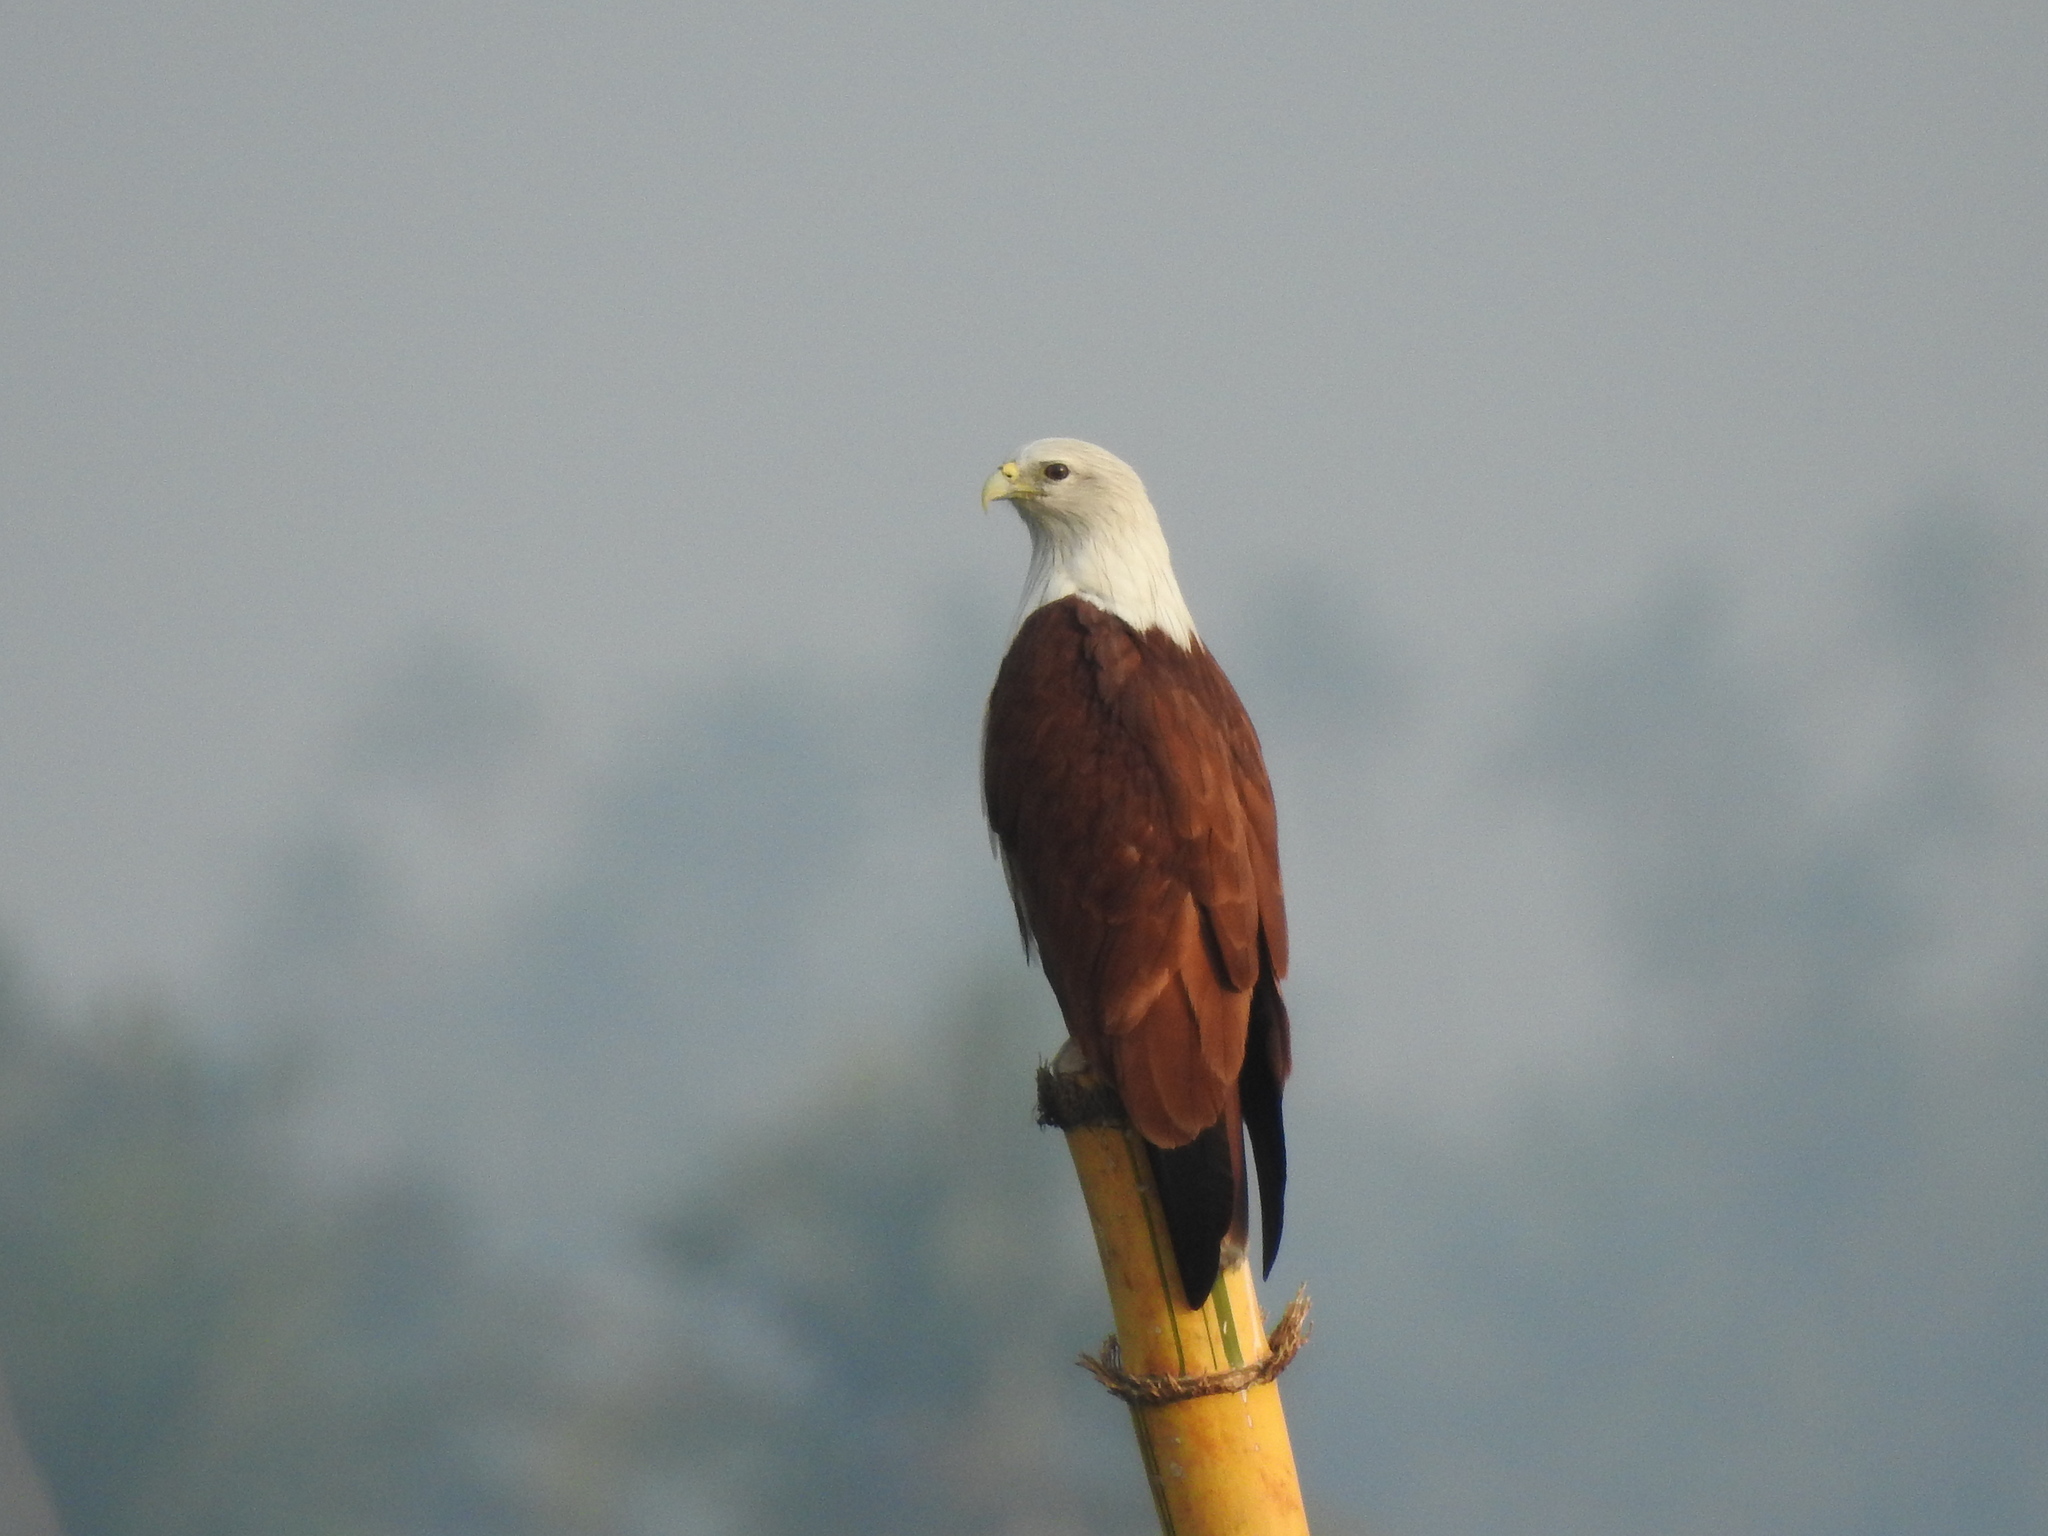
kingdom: Animalia
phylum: Chordata
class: Aves
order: Accipitriformes
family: Accipitridae
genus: Haliastur
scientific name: Haliastur indus
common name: Brahminy kite
